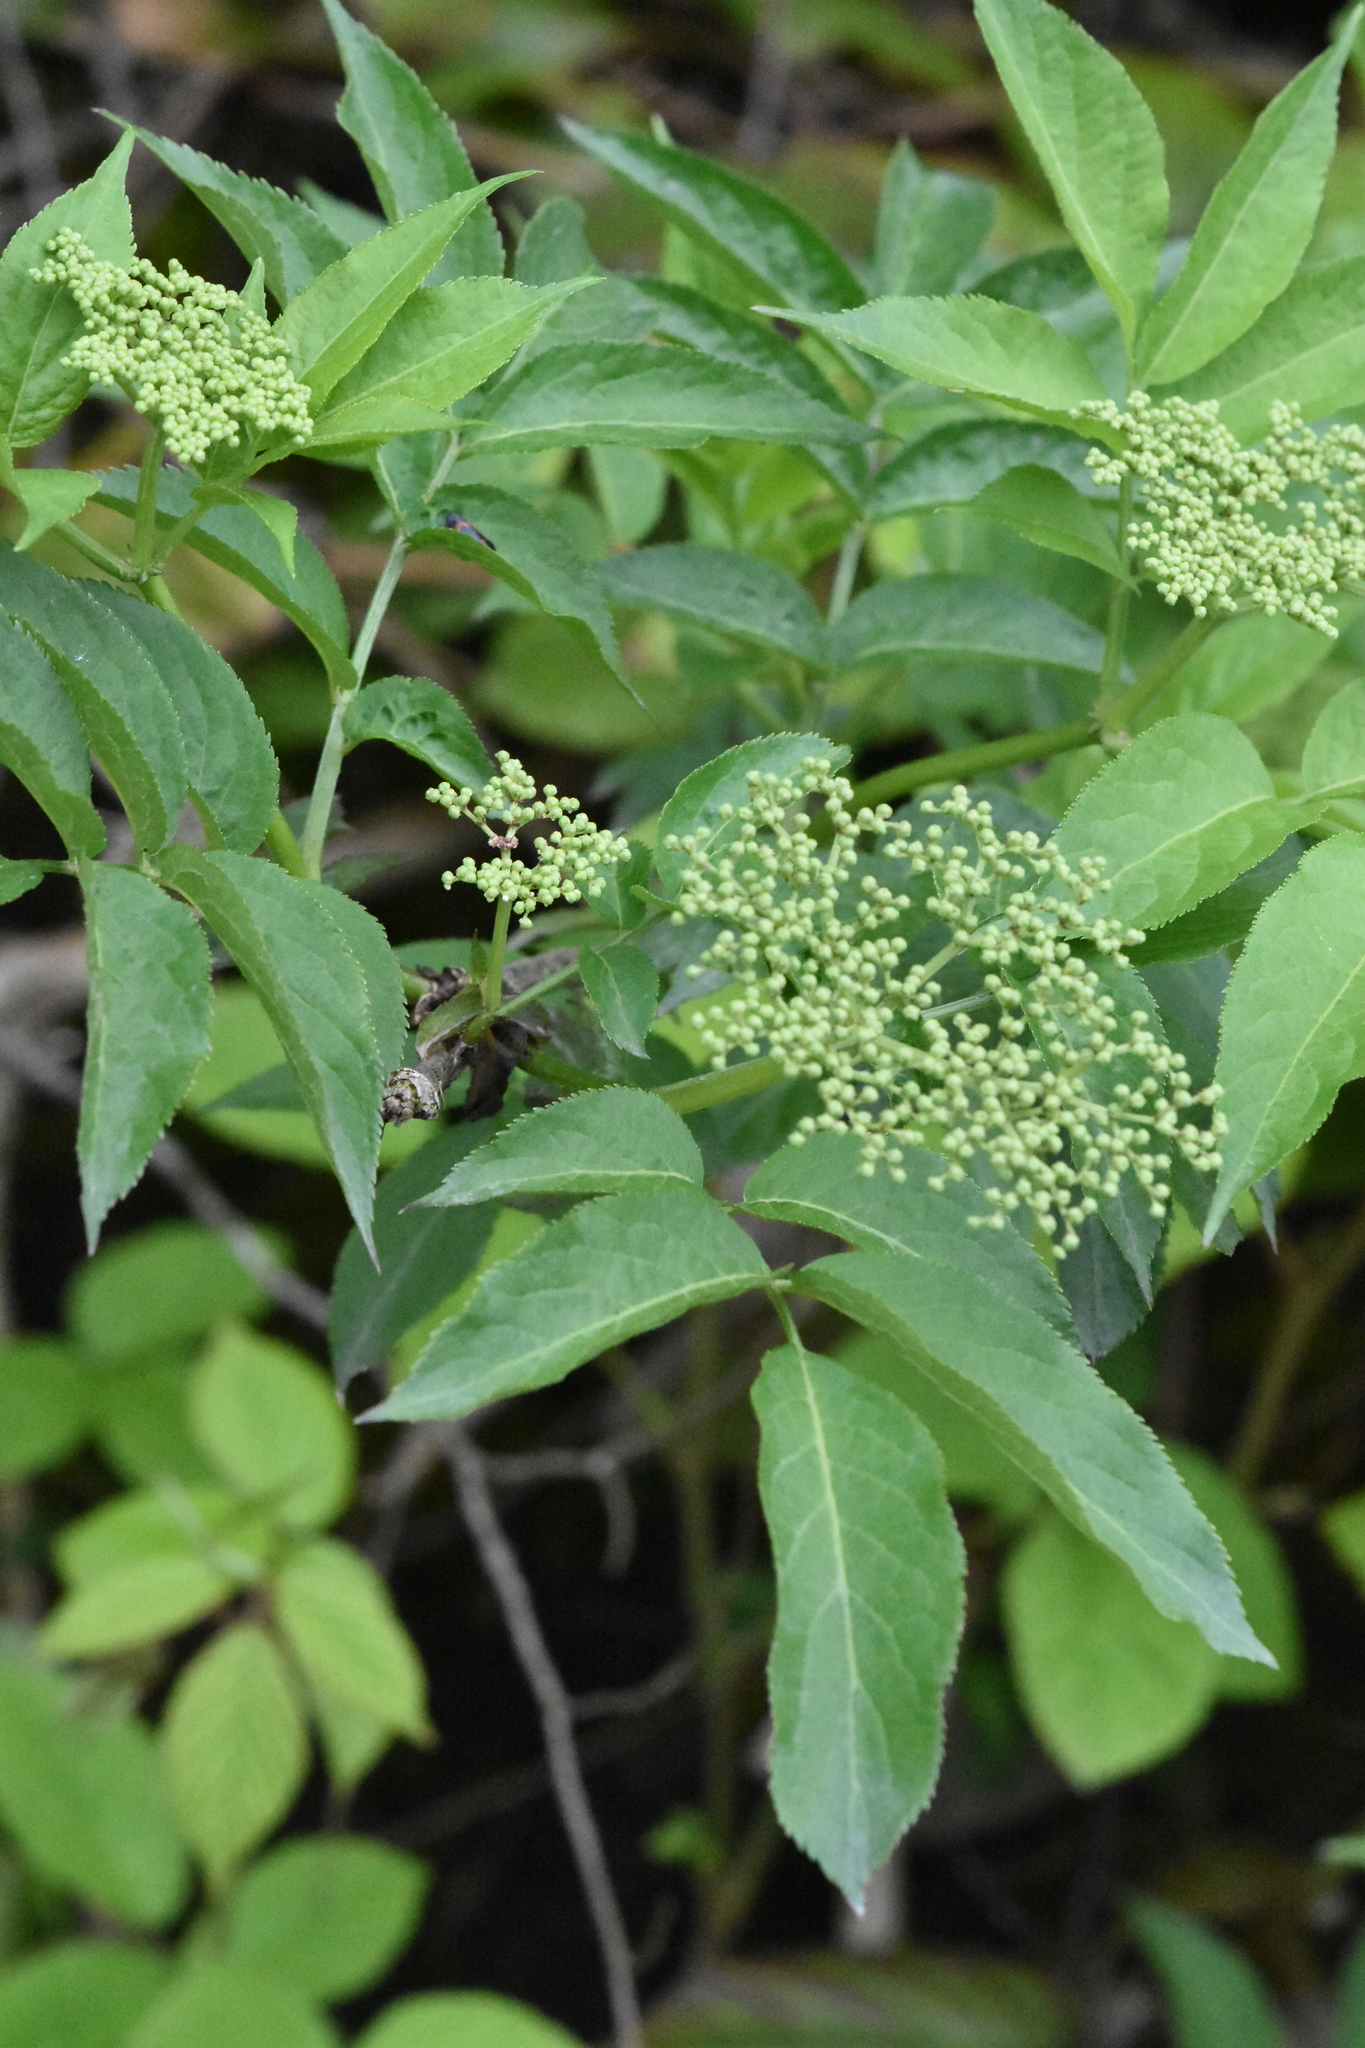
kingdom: Plantae
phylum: Tracheophyta
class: Magnoliopsida
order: Dipsacales
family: Viburnaceae
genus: Sambucus
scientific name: Sambucus nigra
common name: Elder
